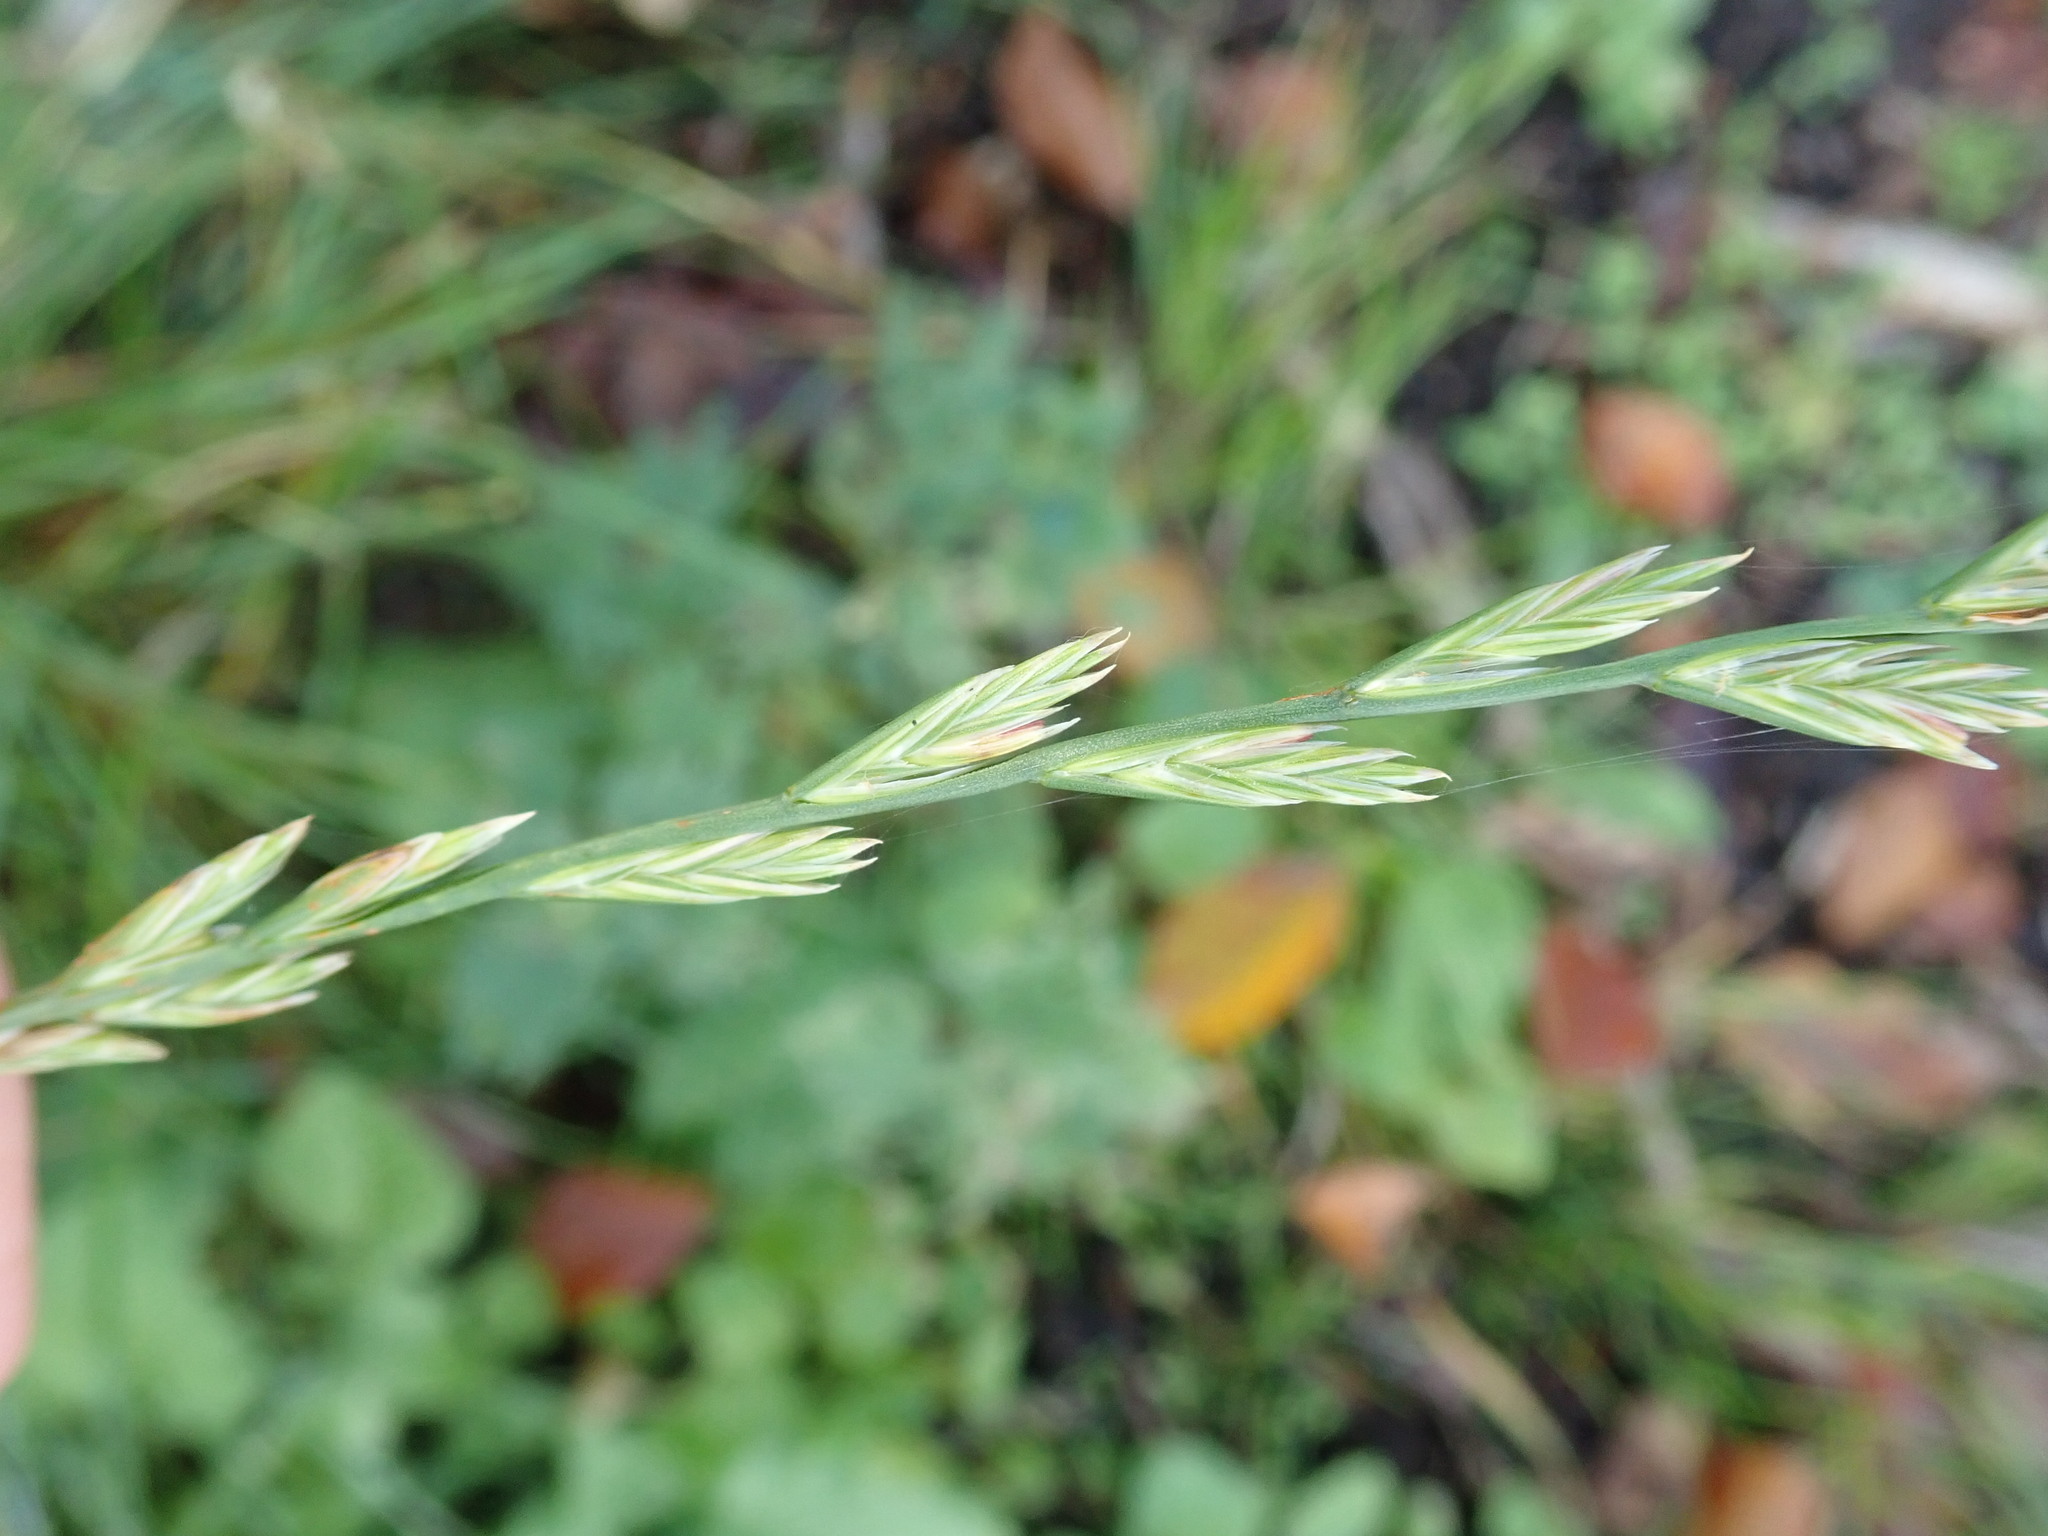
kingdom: Plantae
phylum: Tracheophyta
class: Liliopsida
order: Poales
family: Poaceae
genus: Lolium
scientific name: Lolium perenne
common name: Perennial ryegrass
